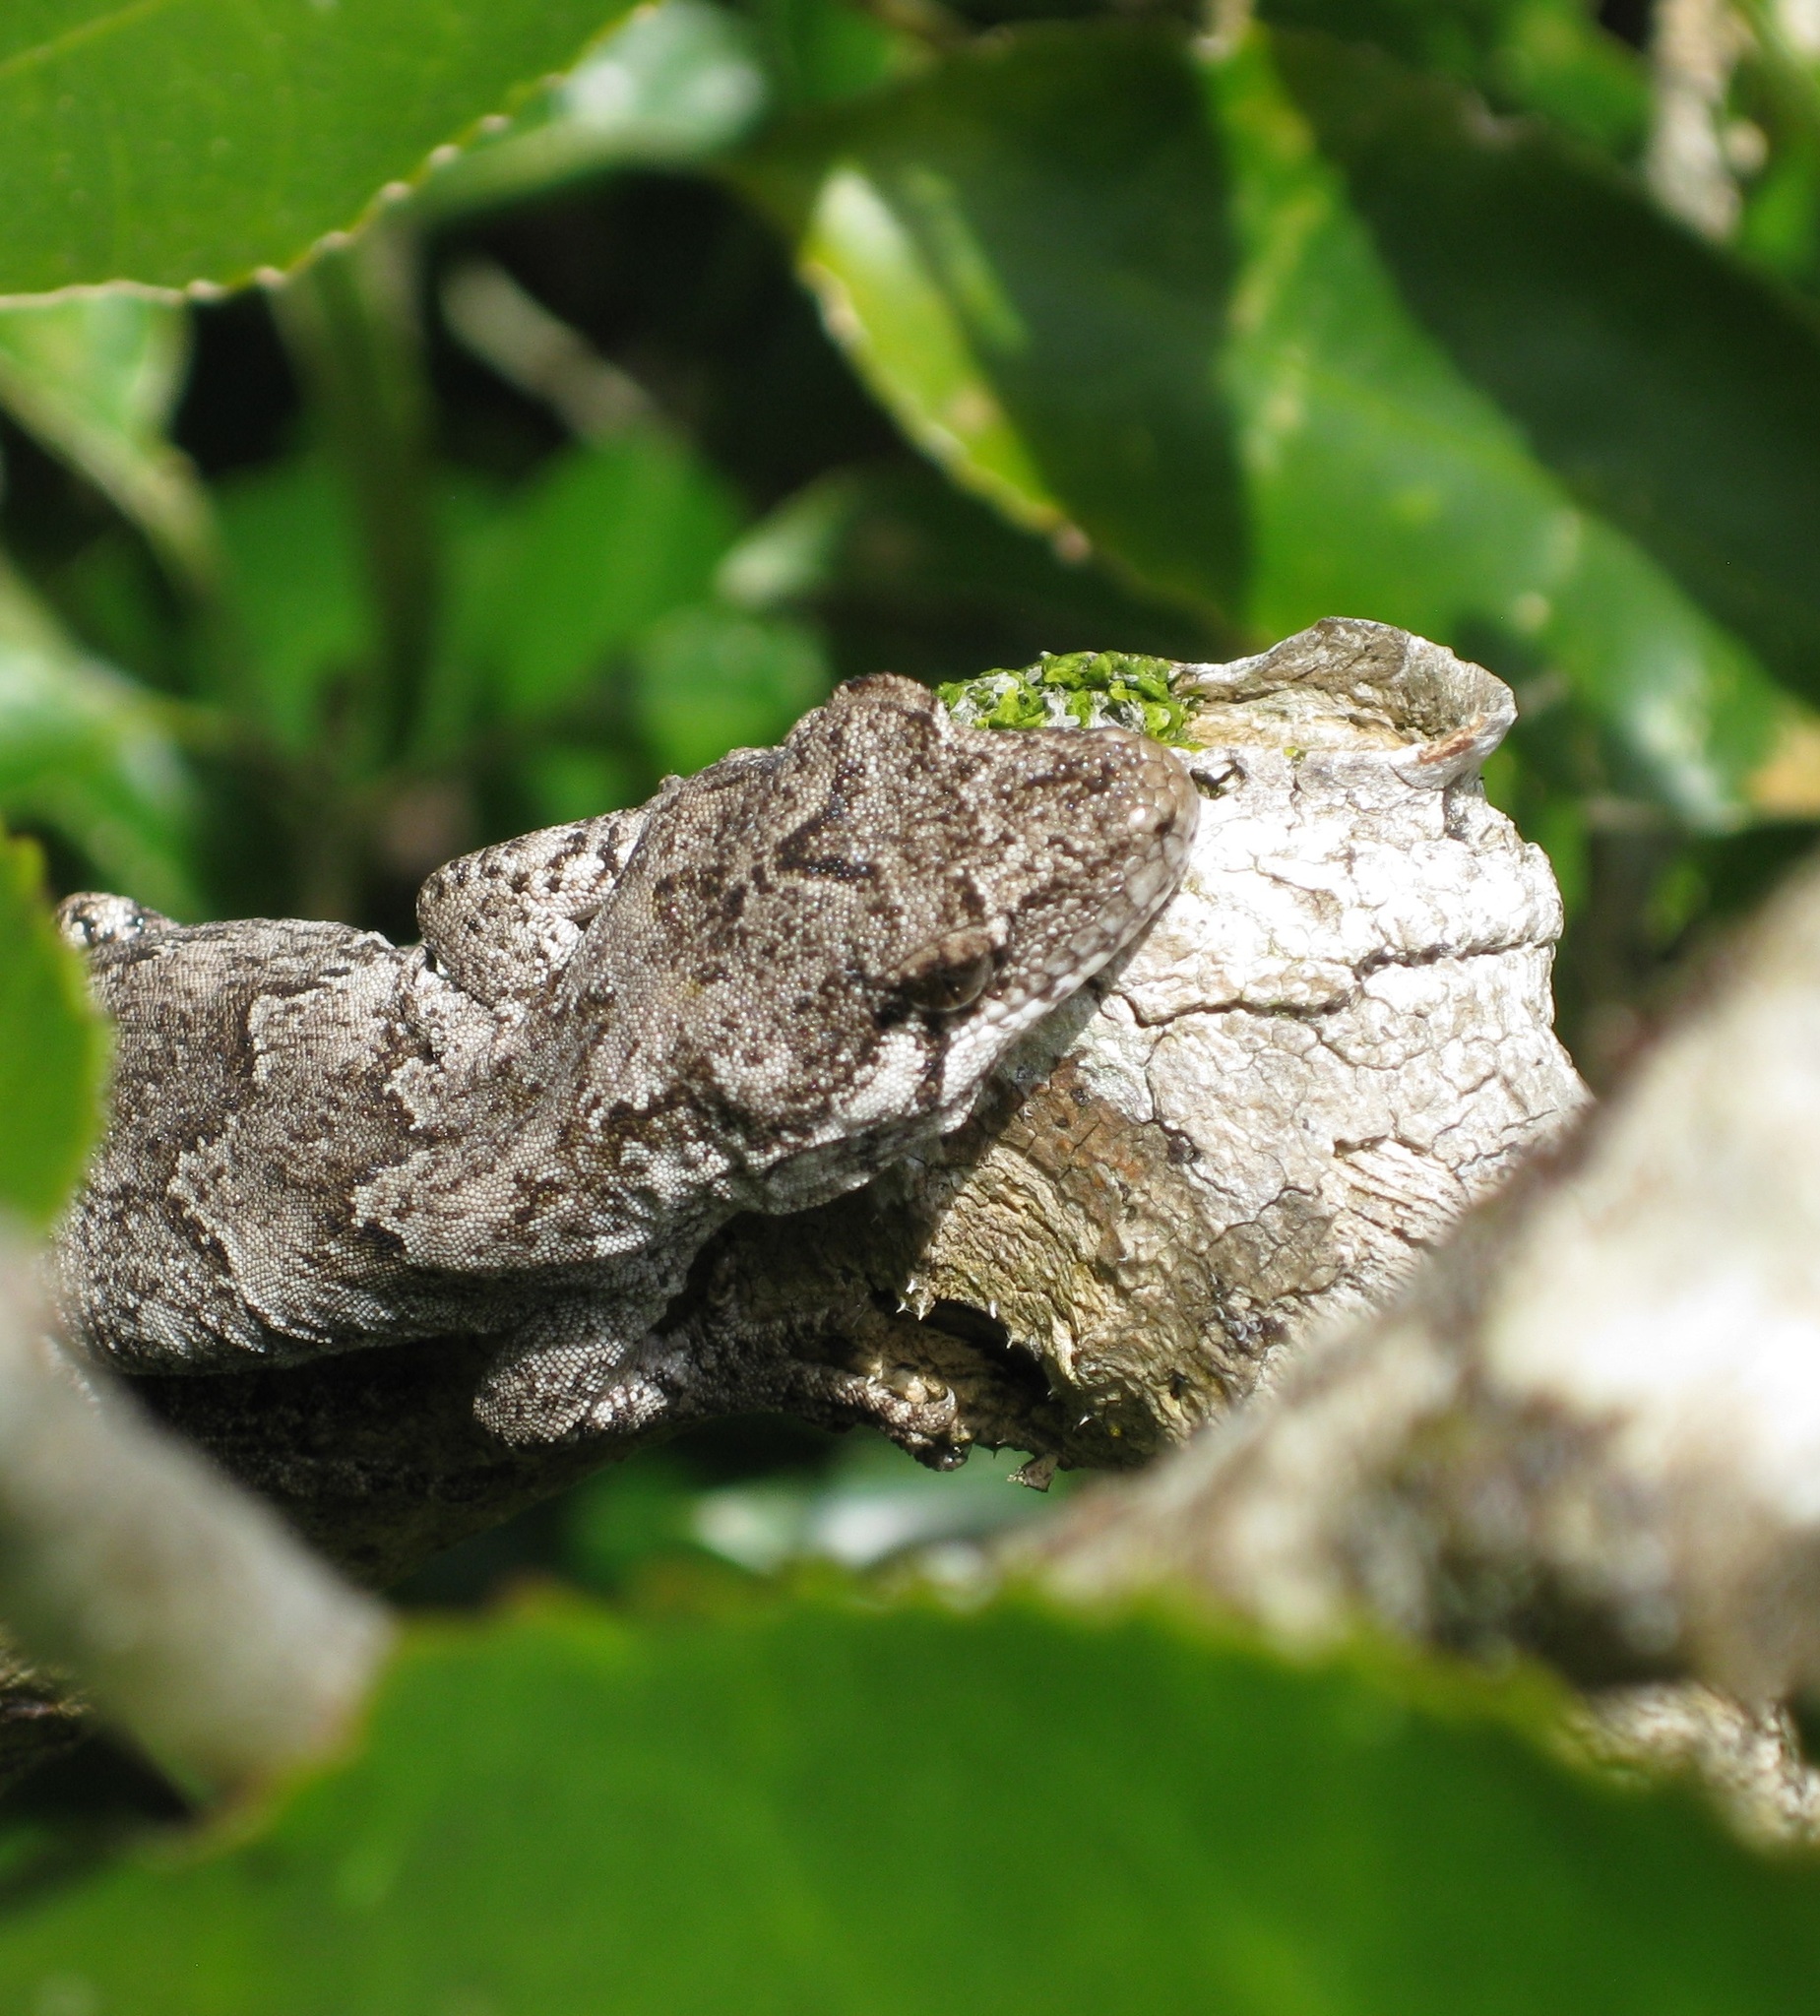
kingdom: Animalia
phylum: Chordata
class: Squamata
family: Diplodactylidae
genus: Mokopirirakau
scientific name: Mokopirirakau
